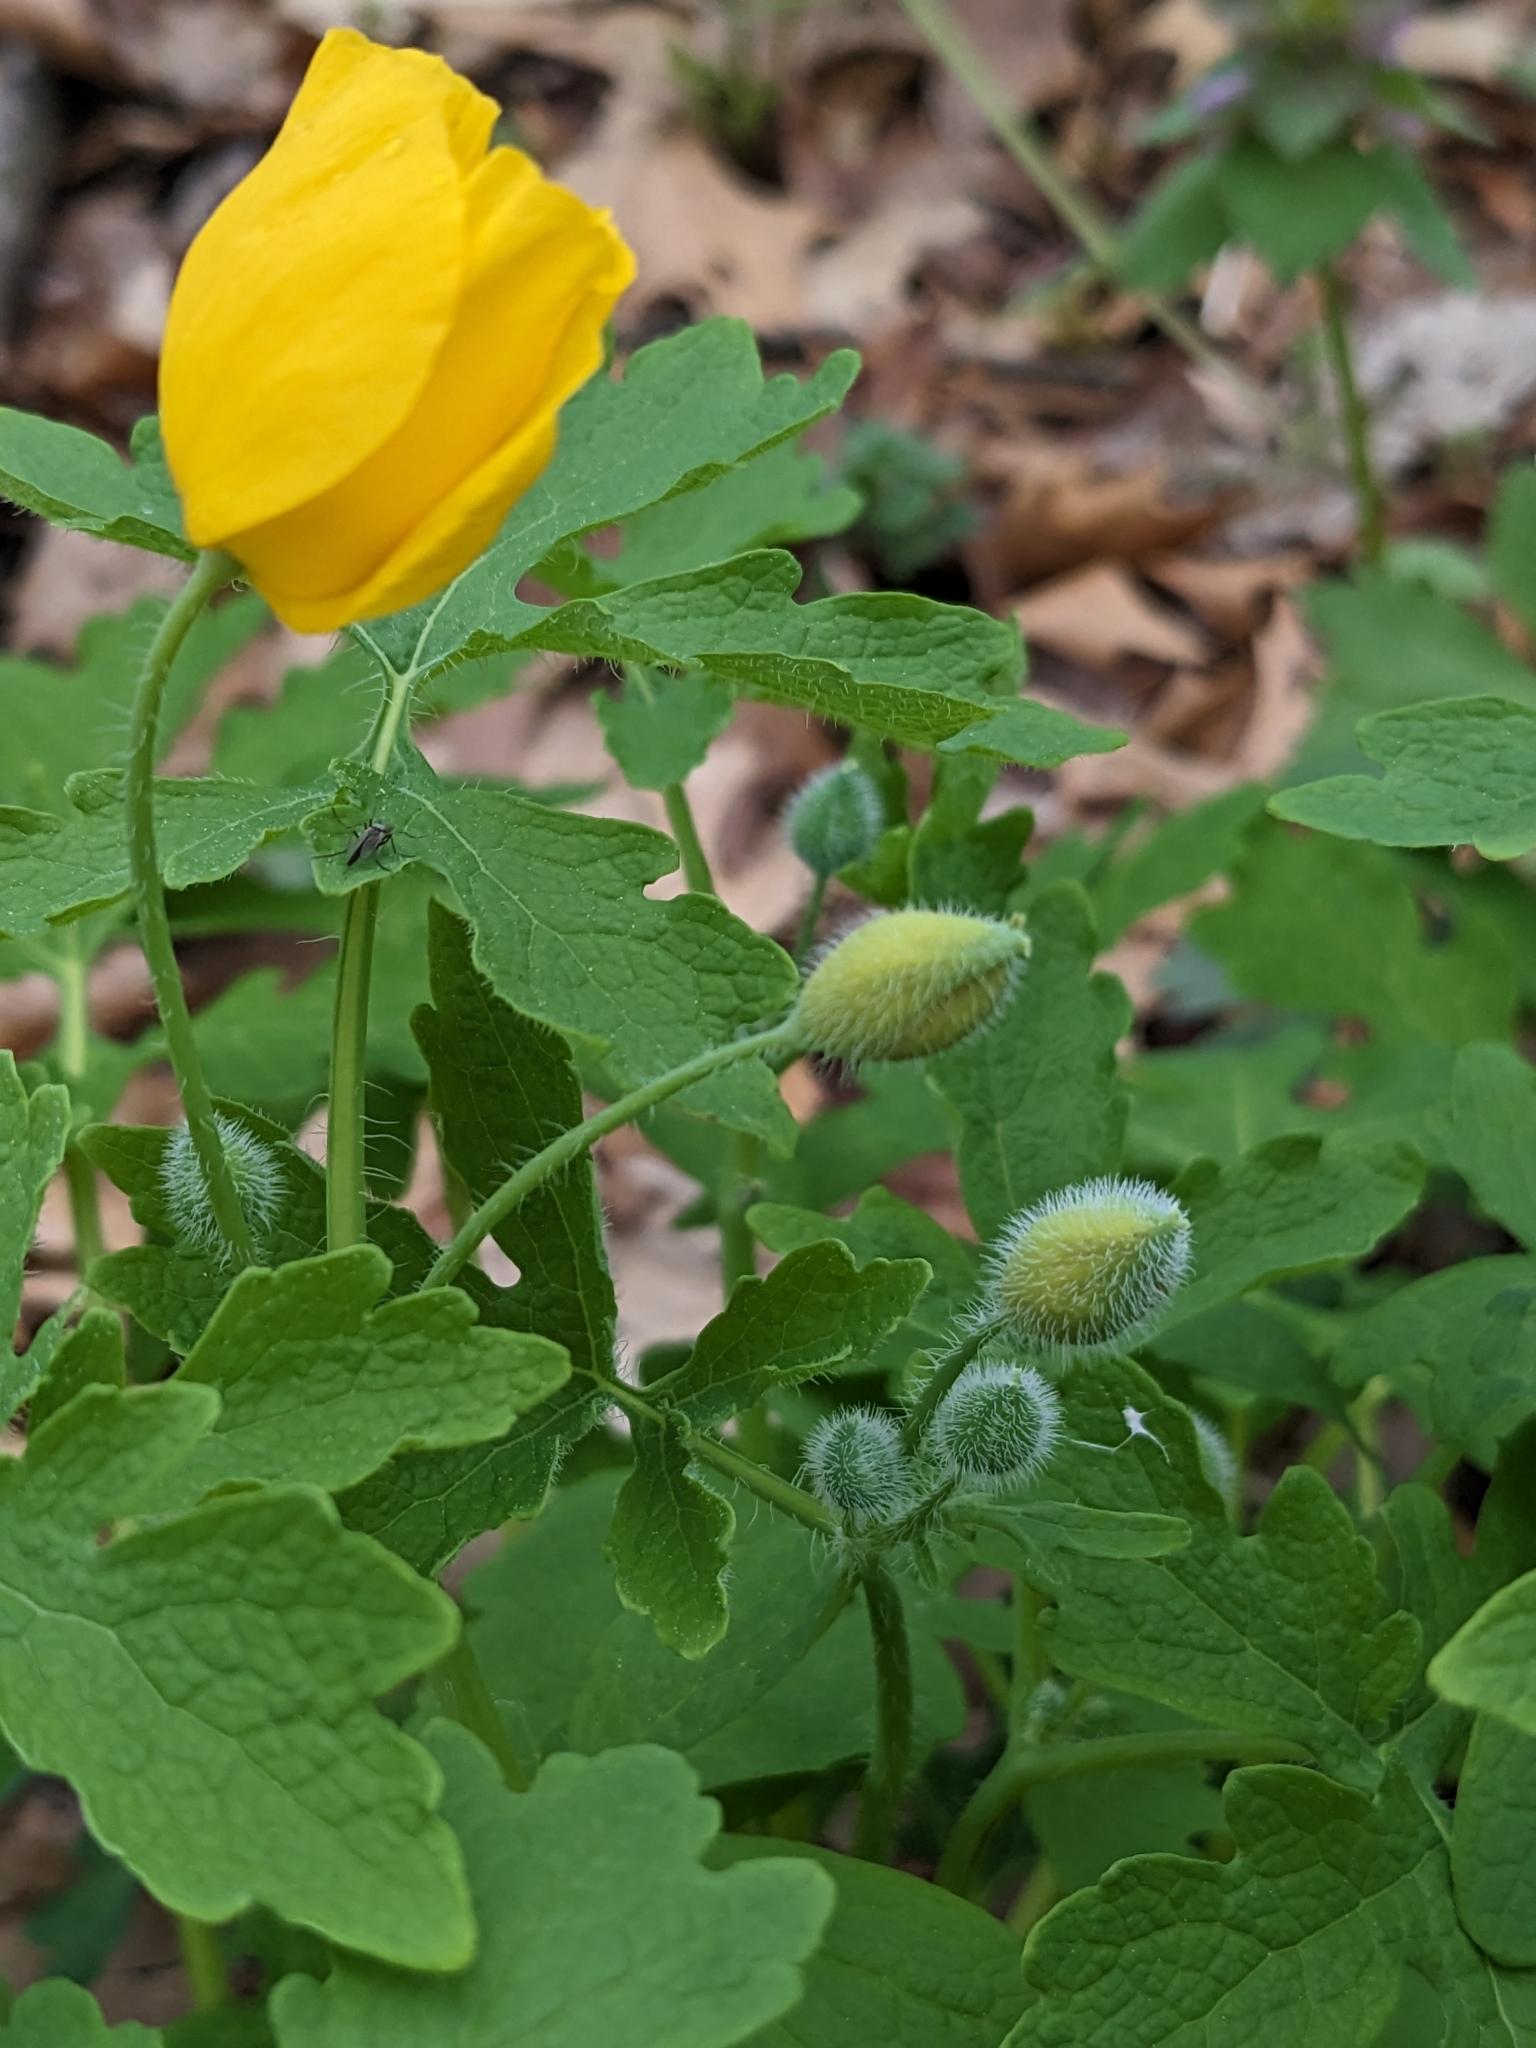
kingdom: Plantae
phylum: Tracheophyta
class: Magnoliopsida
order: Ranunculales
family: Papaveraceae
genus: Stylophorum
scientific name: Stylophorum diphyllum
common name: Celandine poppy
